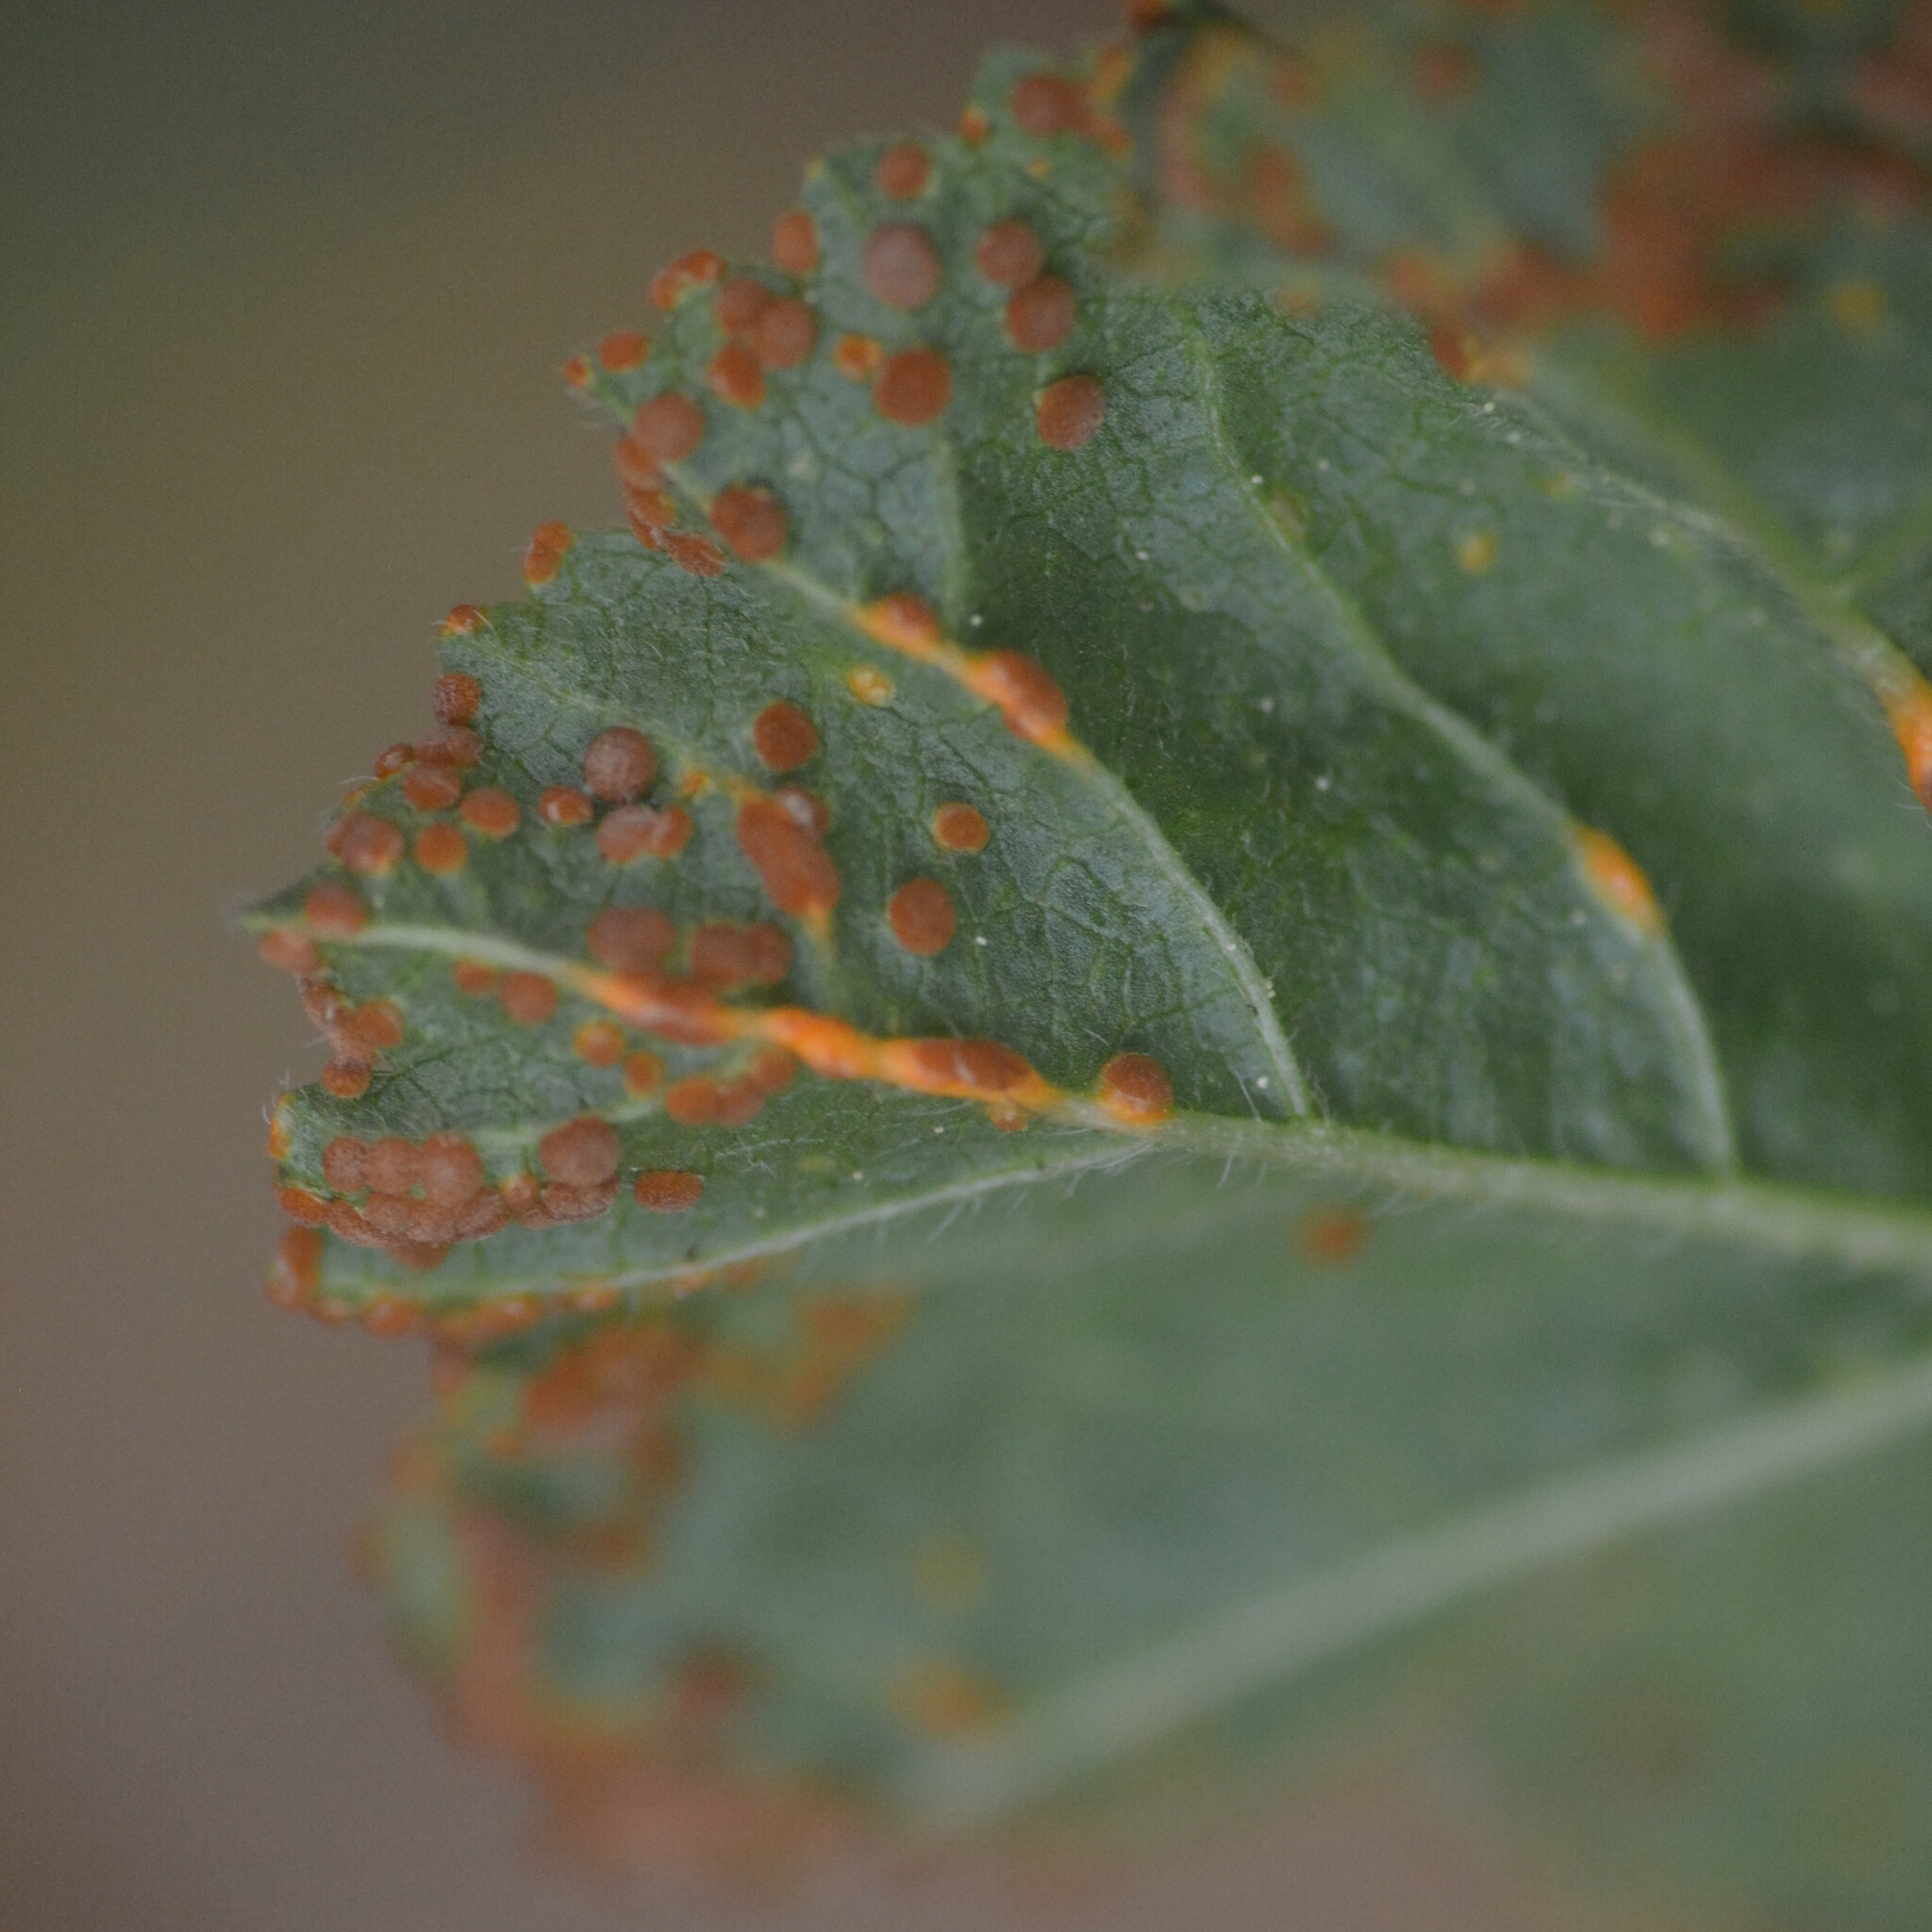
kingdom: Fungi
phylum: Basidiomycota
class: Pucciniomycetes
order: Pucciniales
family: Pucciniaceae
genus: Puccinia
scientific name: Puccinia malvacearum
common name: Hollyhock rust
